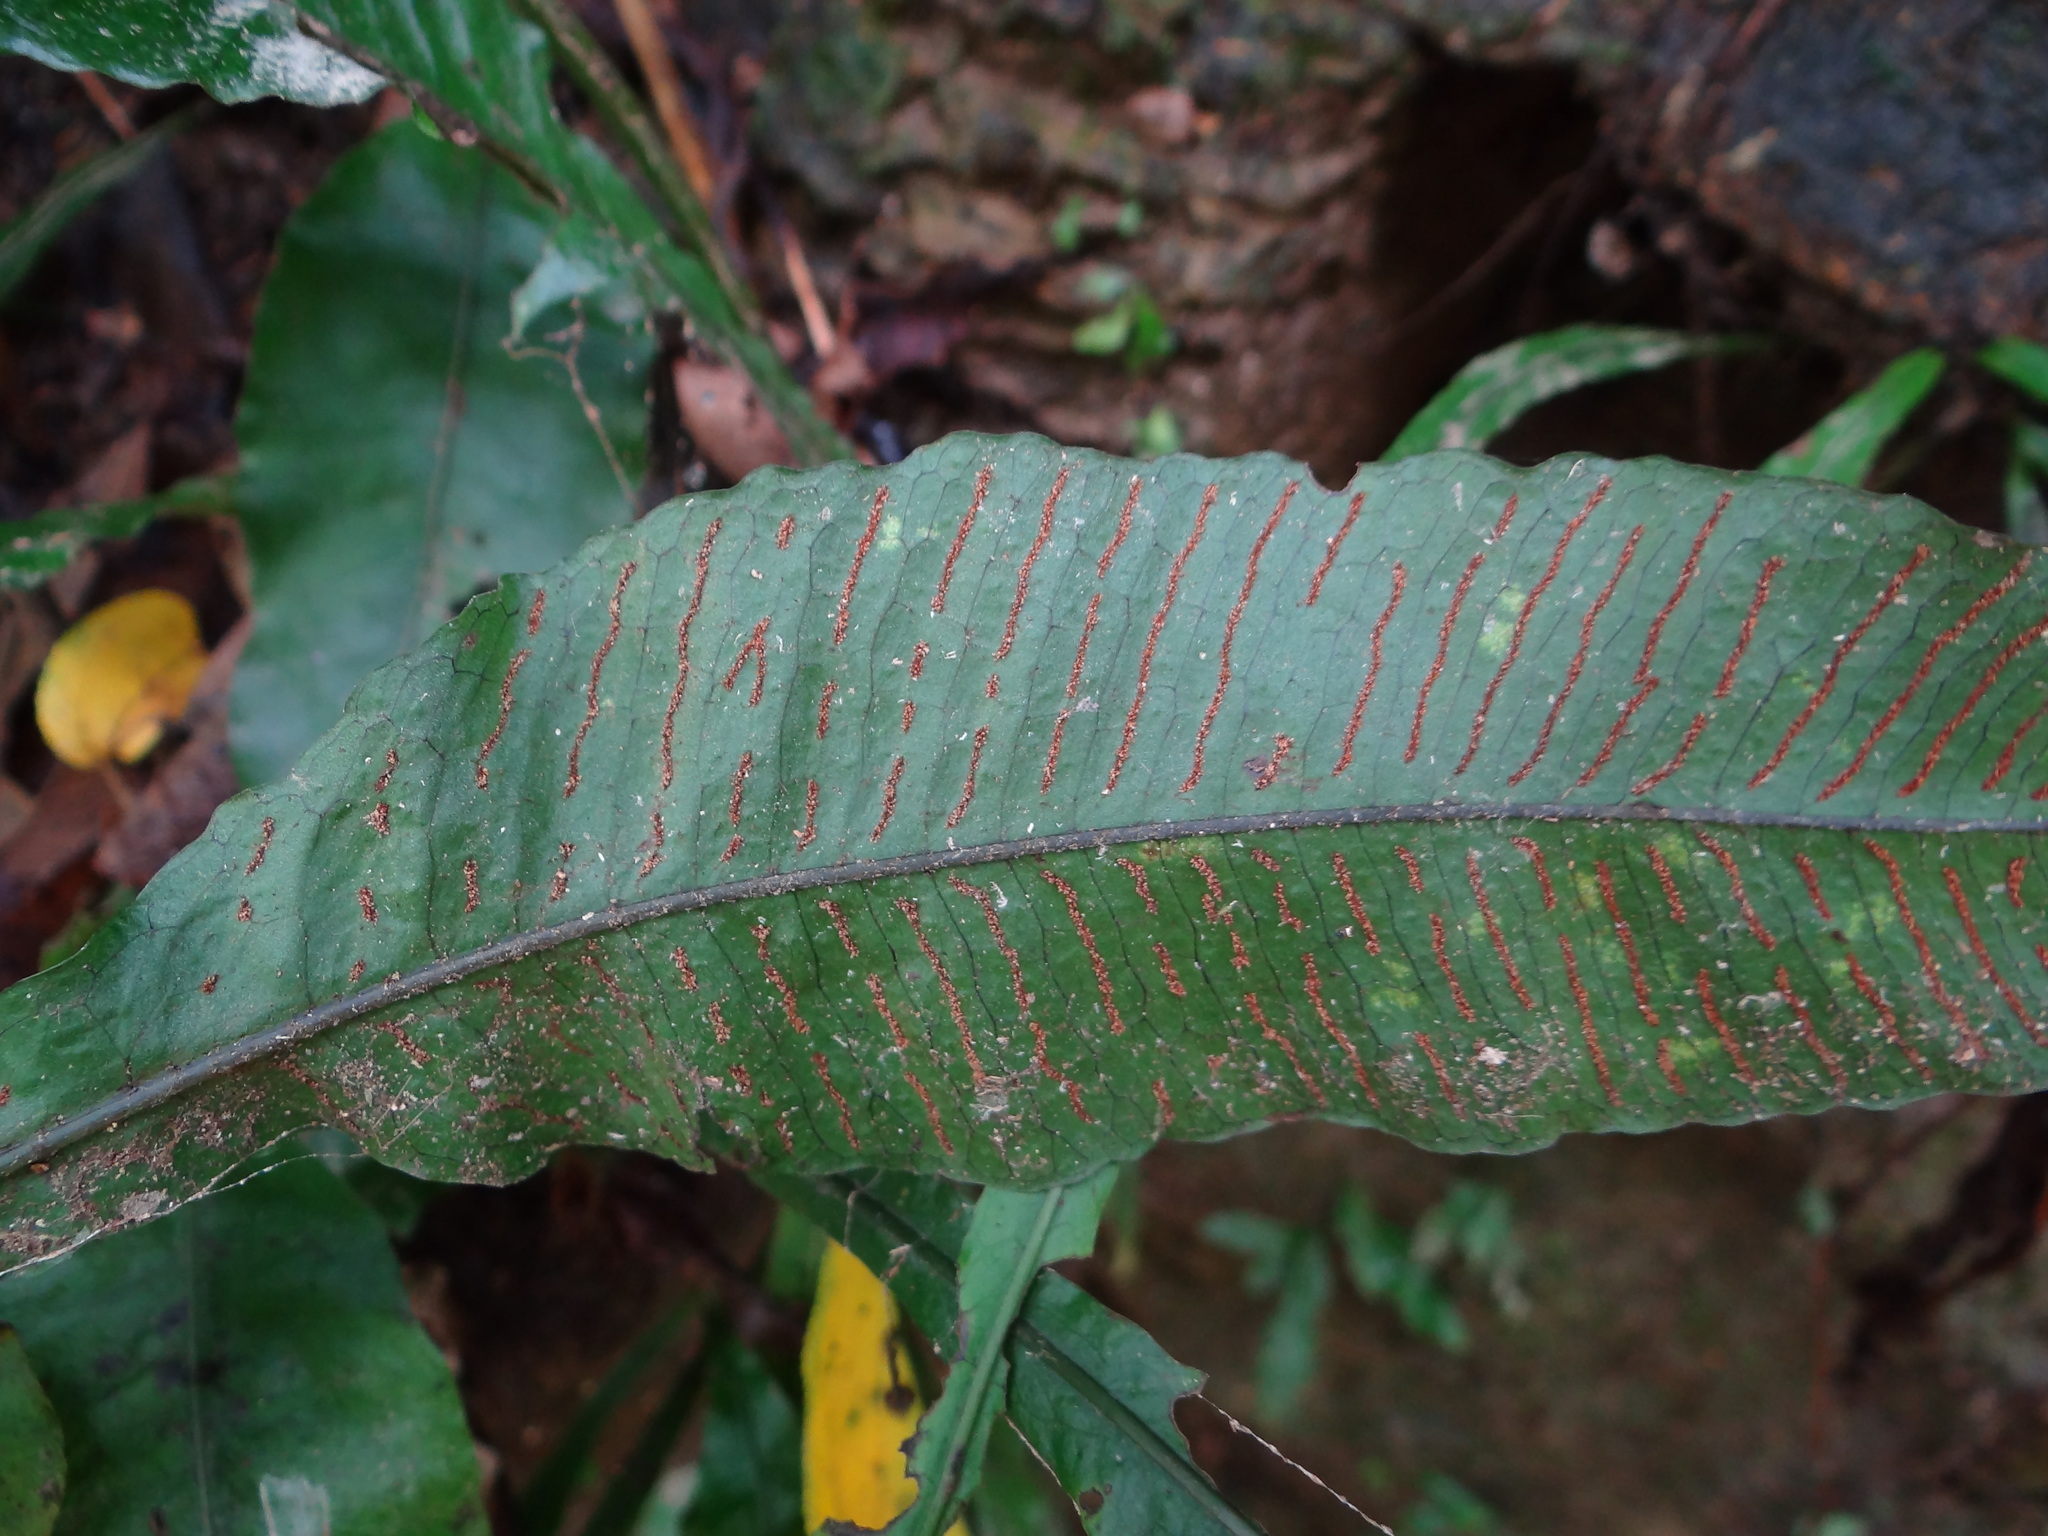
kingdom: Plantae
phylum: Tracheophyta
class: Polypodiopsida
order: Polypodiales
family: Polypodiaceae
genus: Leptochilus
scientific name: Leptochilus wrightii
